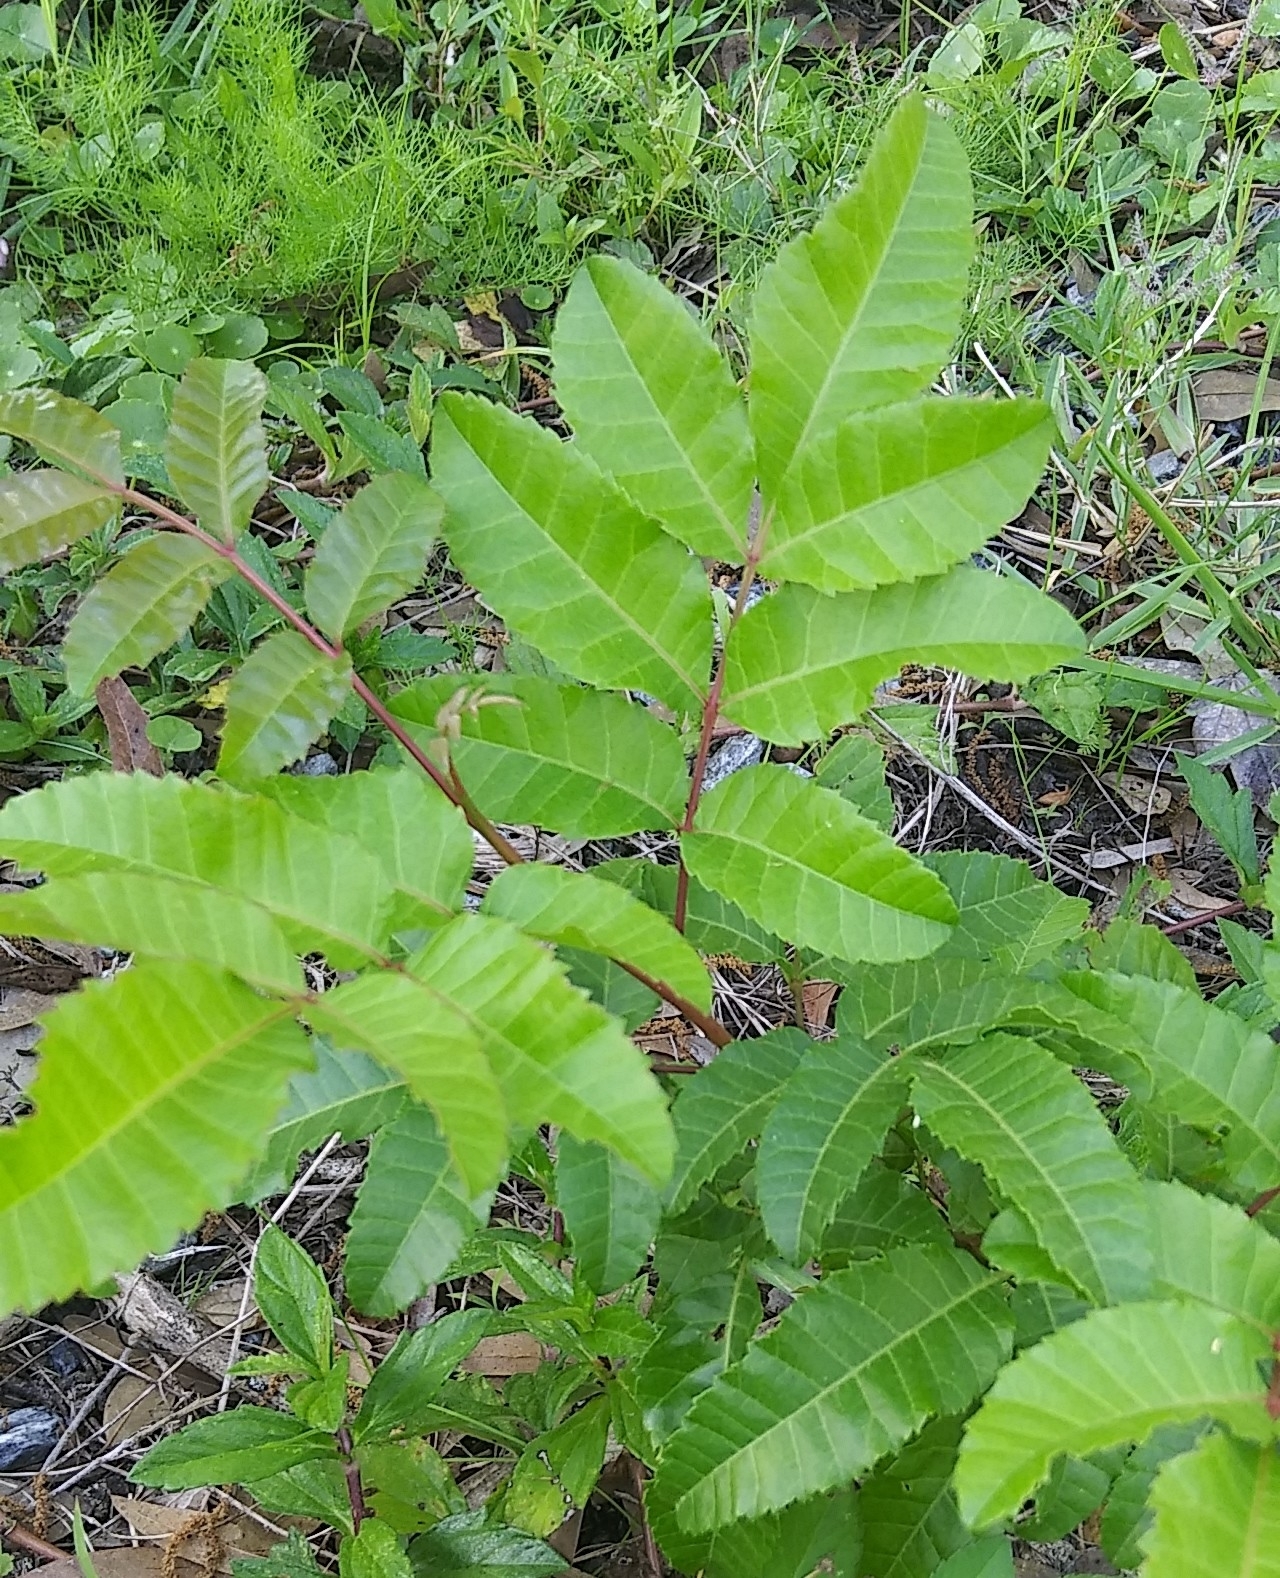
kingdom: Plantae
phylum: Tracheophyta
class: Magnoliopsida
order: Sapindales
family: Anacardiaceae
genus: Schinus
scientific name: Schinus terebinthifolia
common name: Brazilian peppertree
